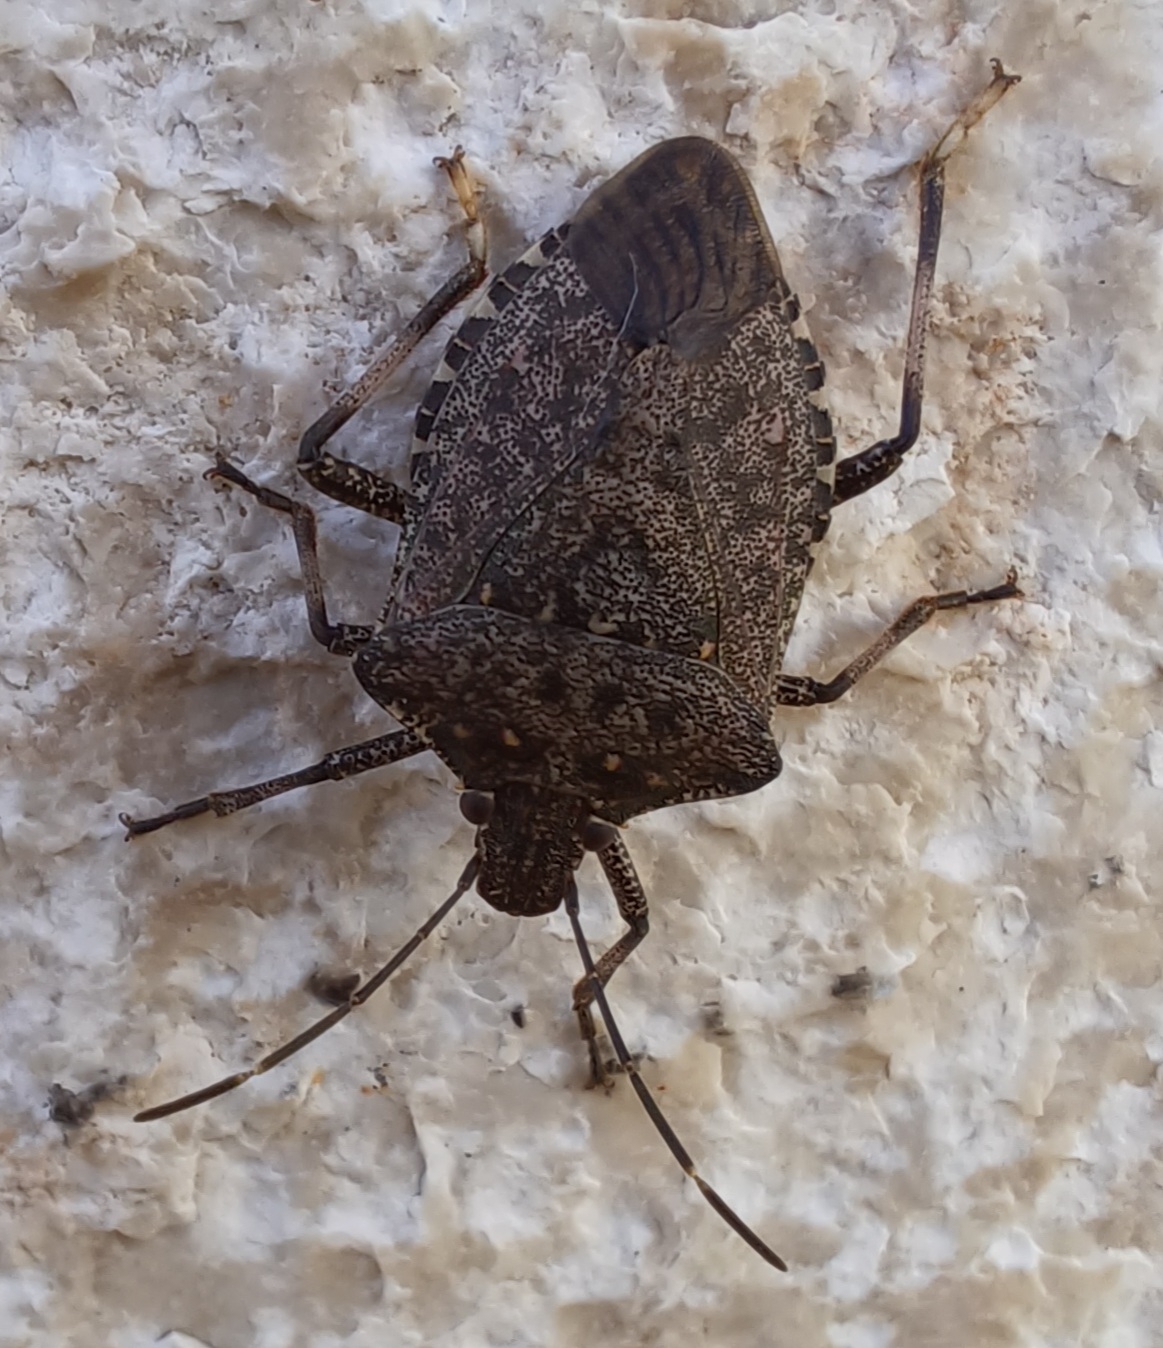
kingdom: Animalia
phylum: Arthropoda
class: Insecta
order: Hemiptera
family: Pentatomidae
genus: Halyomorpha
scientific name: Halyomorpha halys
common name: Brown marmorated stink bug
